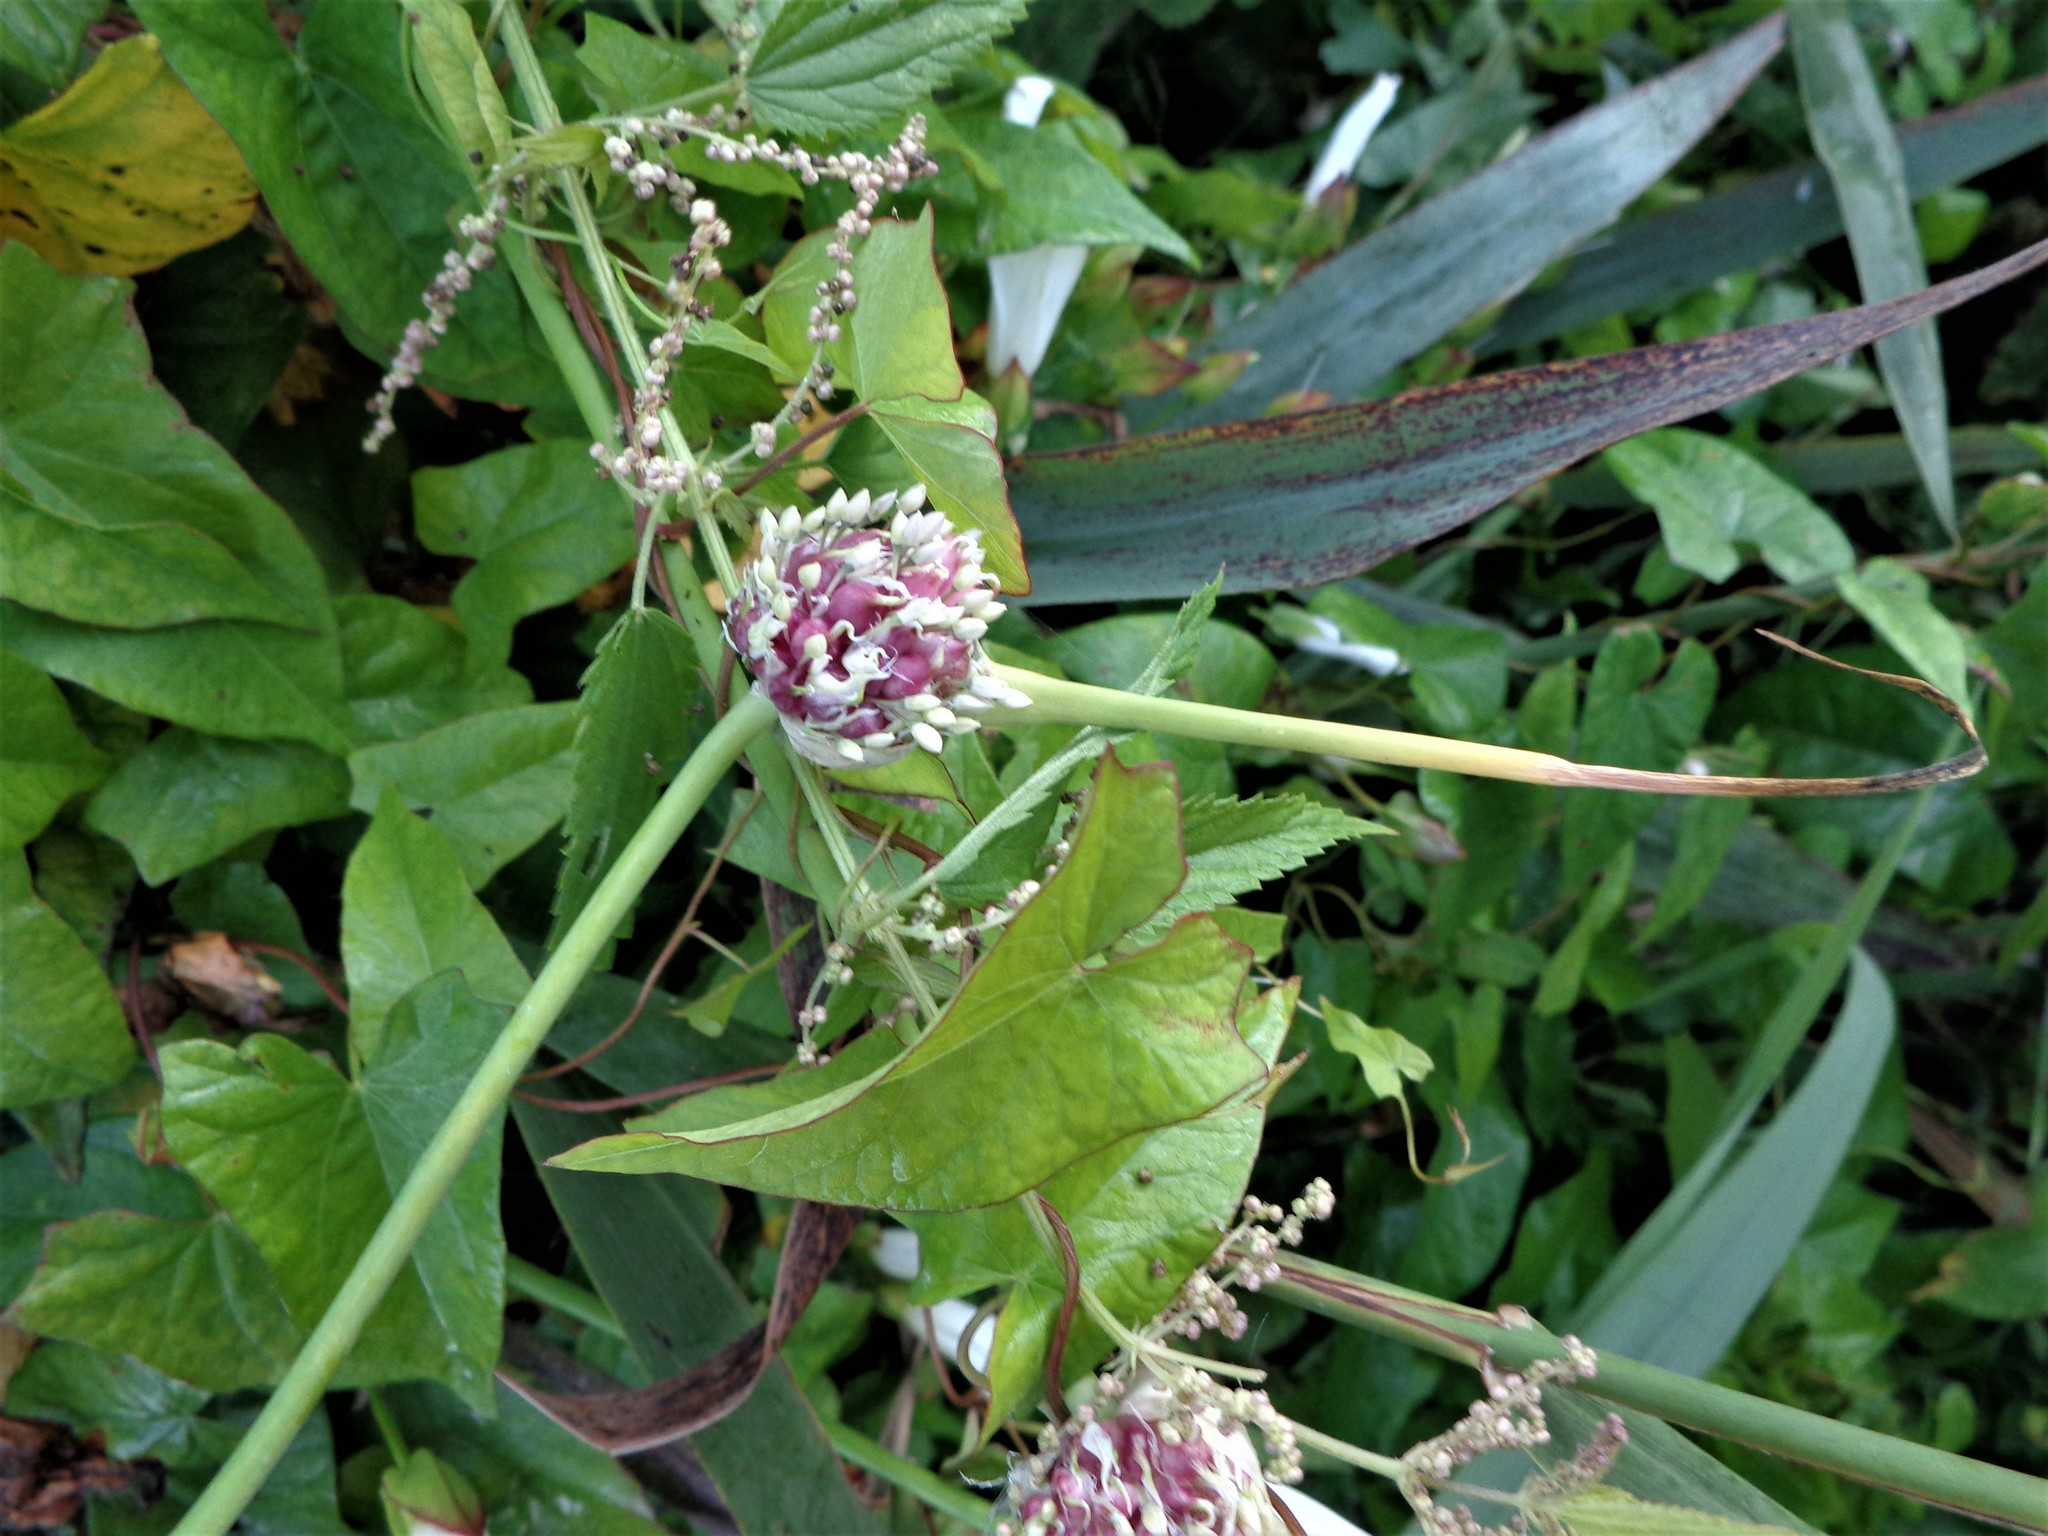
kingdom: Plantae
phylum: Tracheophyta
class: Liliopsida
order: Asparagales
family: Amaryllidaceae
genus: Allium
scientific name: Allium sativum
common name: Garlic
